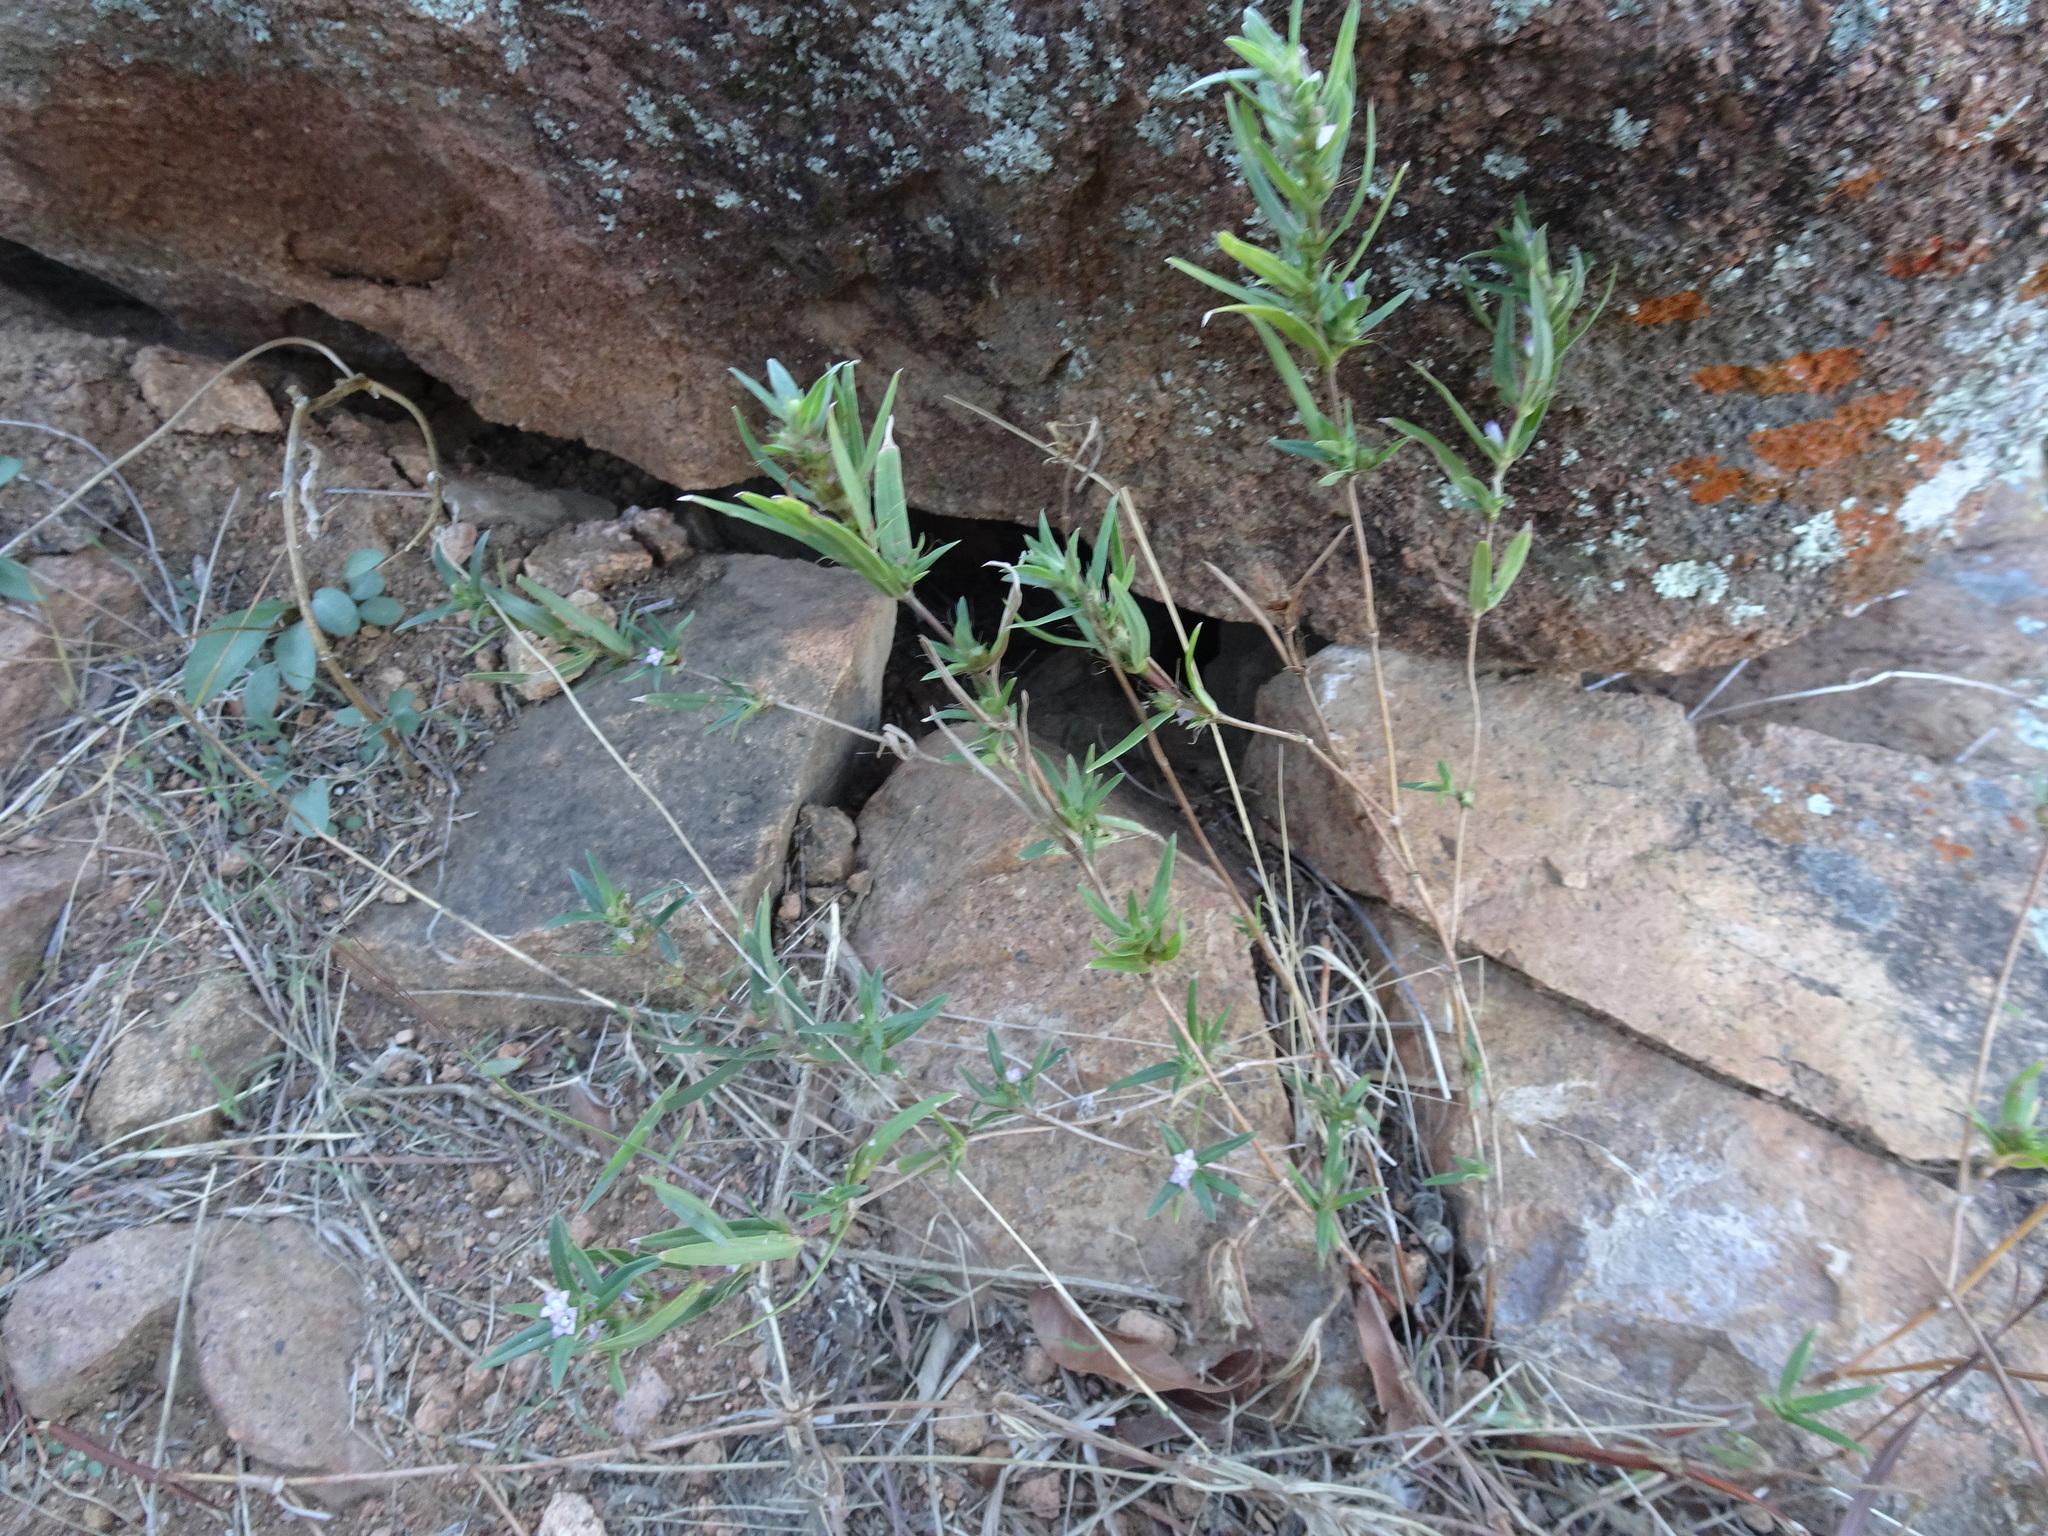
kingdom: Plantae
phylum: Tracheophyta
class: Magnoliopsida
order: Gentianales
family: Rubiaceae
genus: Hexasepalum
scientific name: Hexasepalum teres
